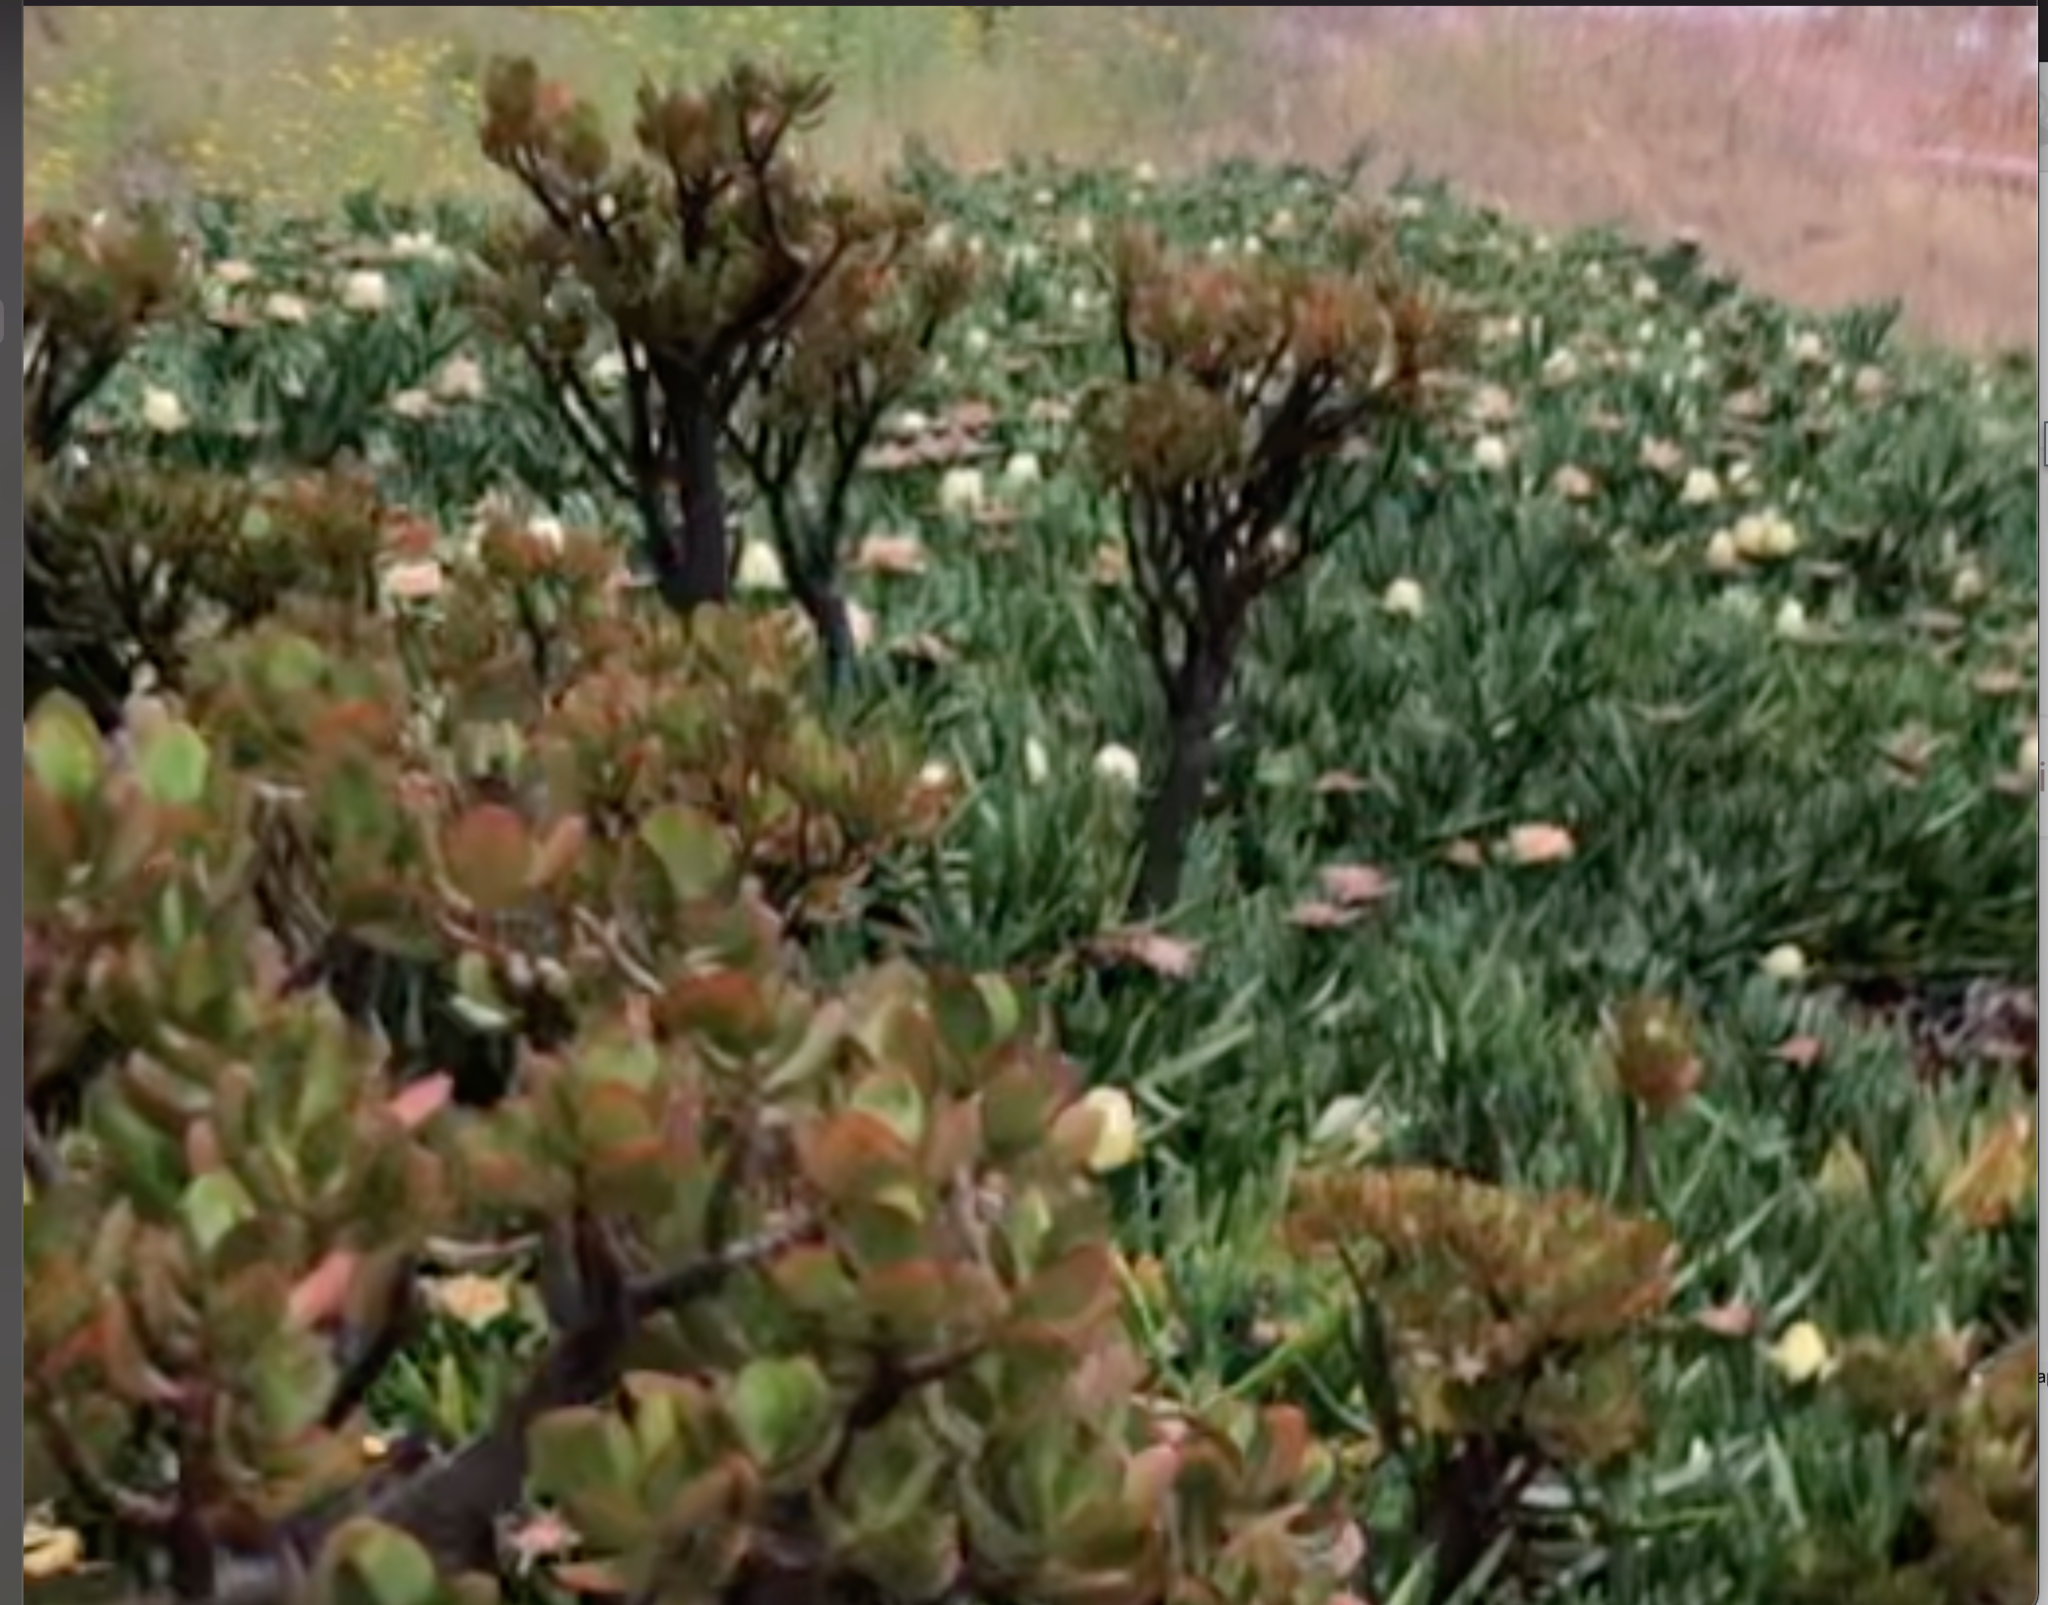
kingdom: Plantae
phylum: Tracheophyta
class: Magnoliopsida
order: Saxifragales
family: Crassulaceae
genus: Crassula
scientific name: Crassula ovata
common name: Jade plant
